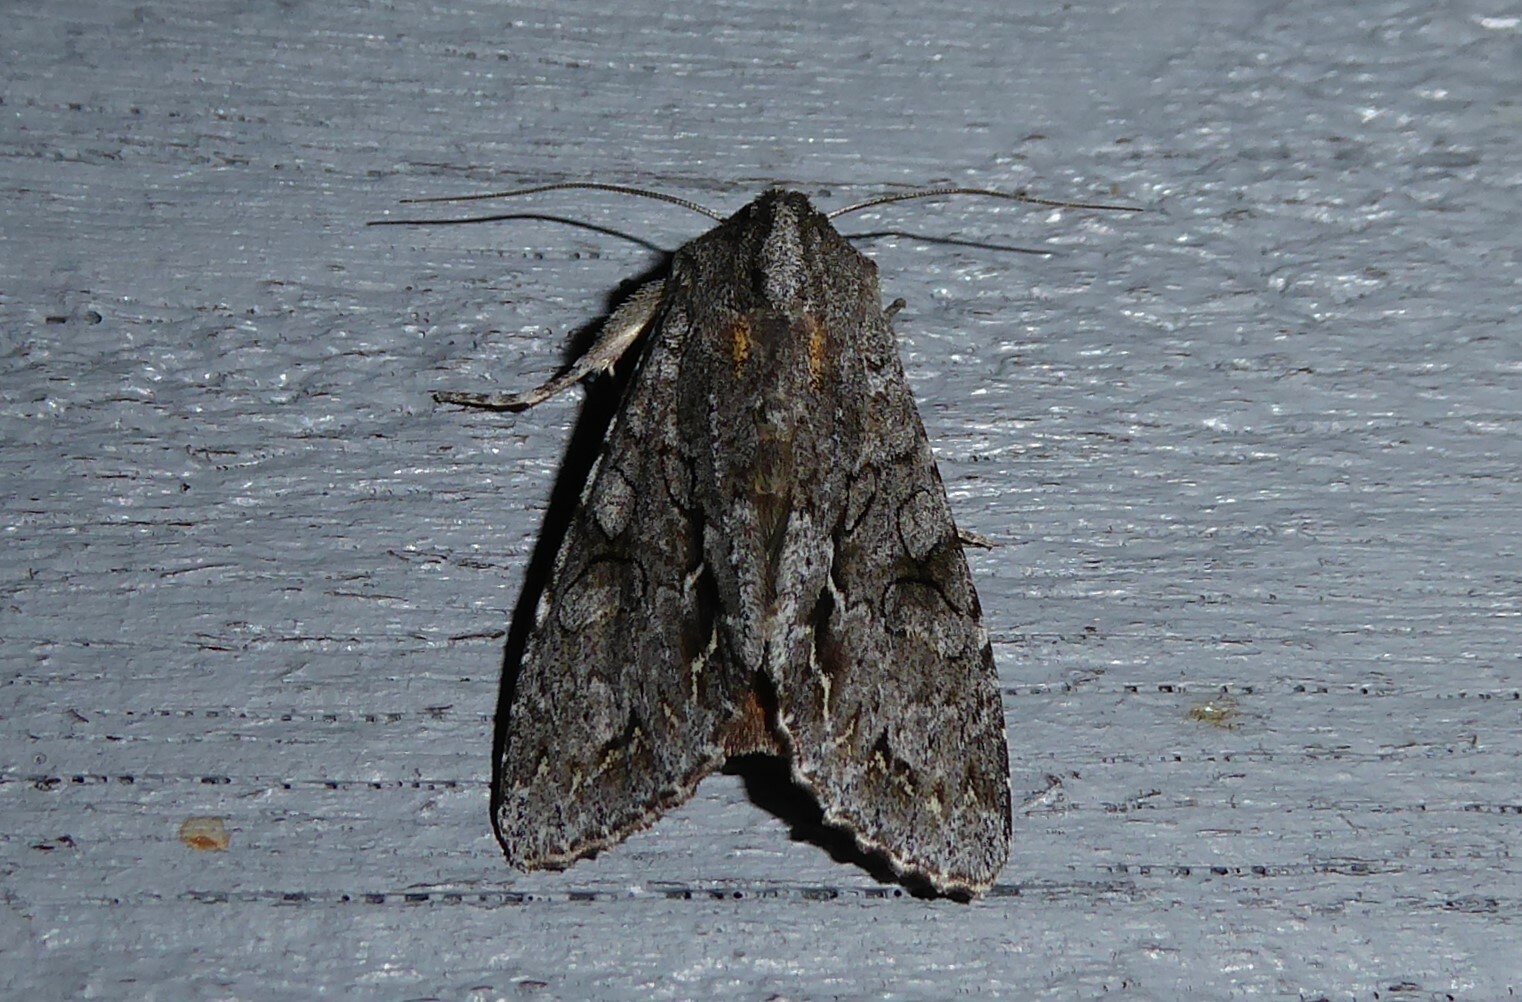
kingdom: Animalia
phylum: Arthropoda
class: Insecta
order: Lepidoptera
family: Noctuidae
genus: Ichneutica
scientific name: Ichneutica
